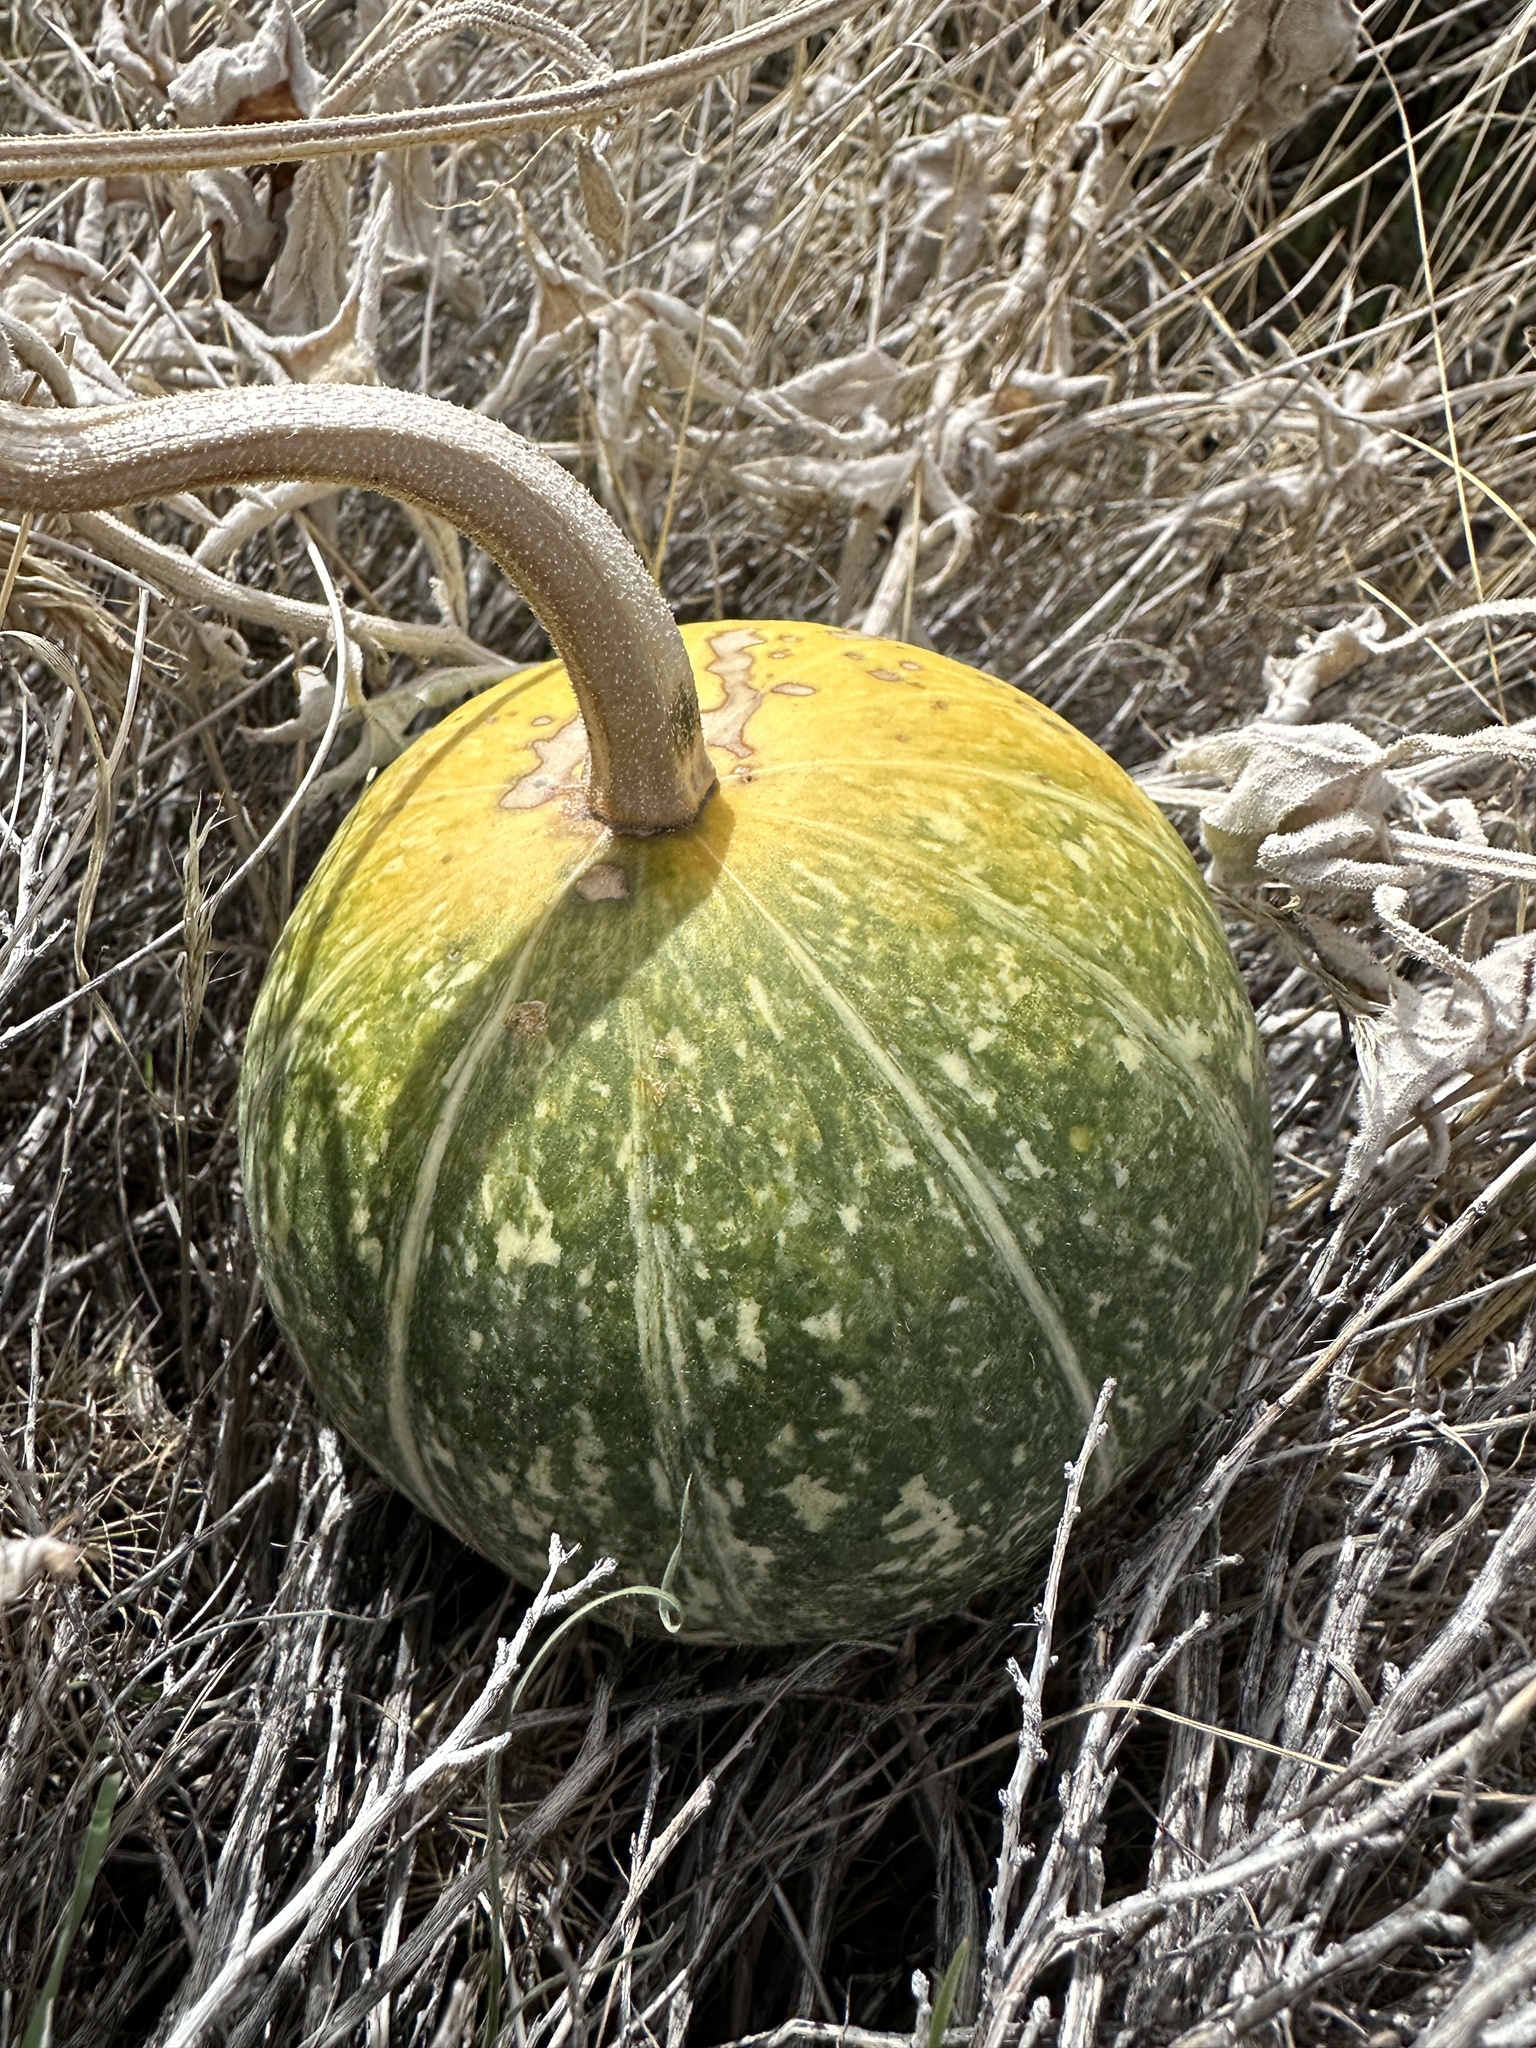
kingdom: Plantae
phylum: Tracheophyta
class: Magnoliopsida
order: Cucurbitales
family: Cucurbitaceae
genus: Cucurbita
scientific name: Cucurbita palmata
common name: Coyote-melon
